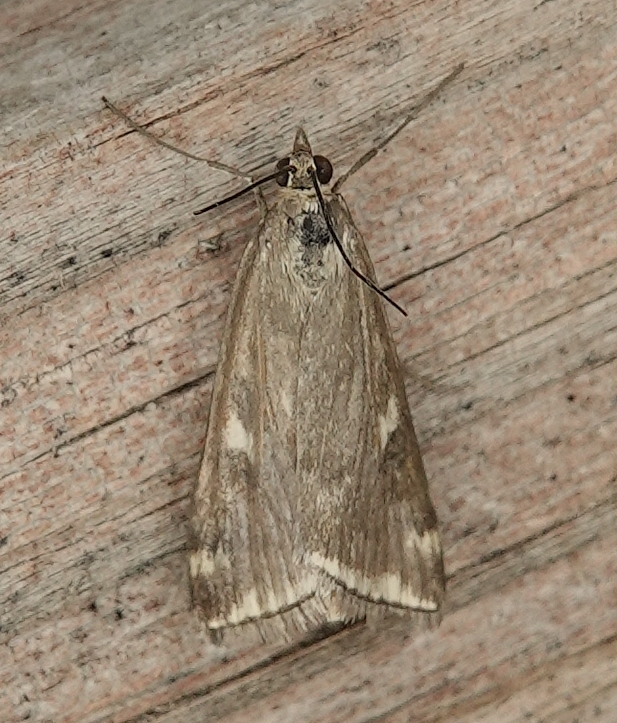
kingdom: Animalia
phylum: Arthropoda
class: Insecta
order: Lepidoptera
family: Crambidae
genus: Loxostege
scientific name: Loxostege
